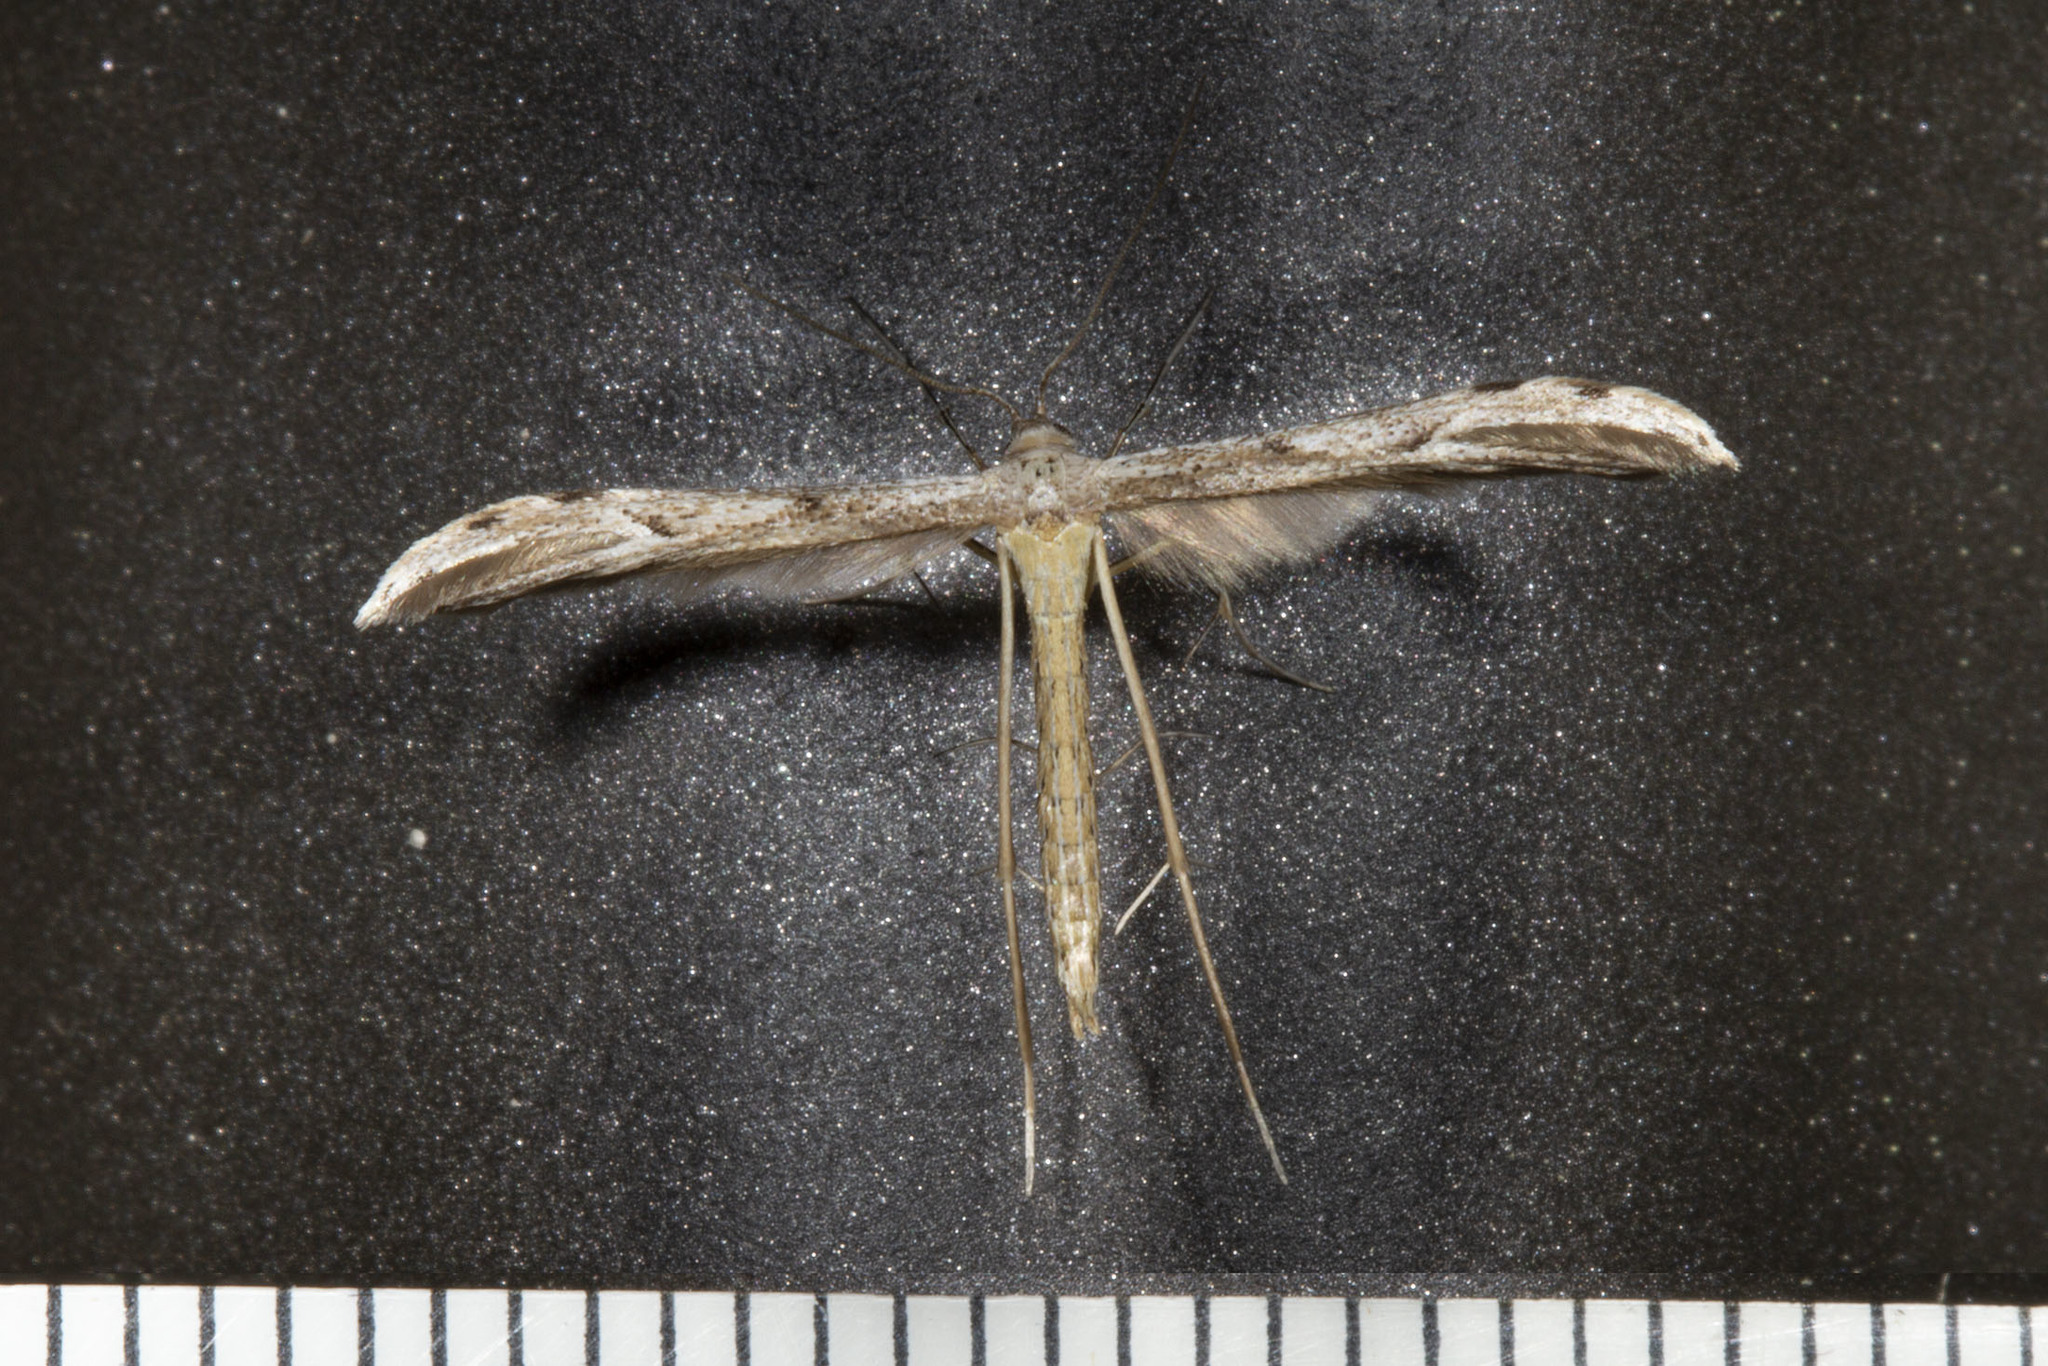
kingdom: Animalia
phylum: Arthropoda
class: Insecta
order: Lepidoptera
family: Pterophoridae
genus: Pselnophorus
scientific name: Pselnophorus belfragei
